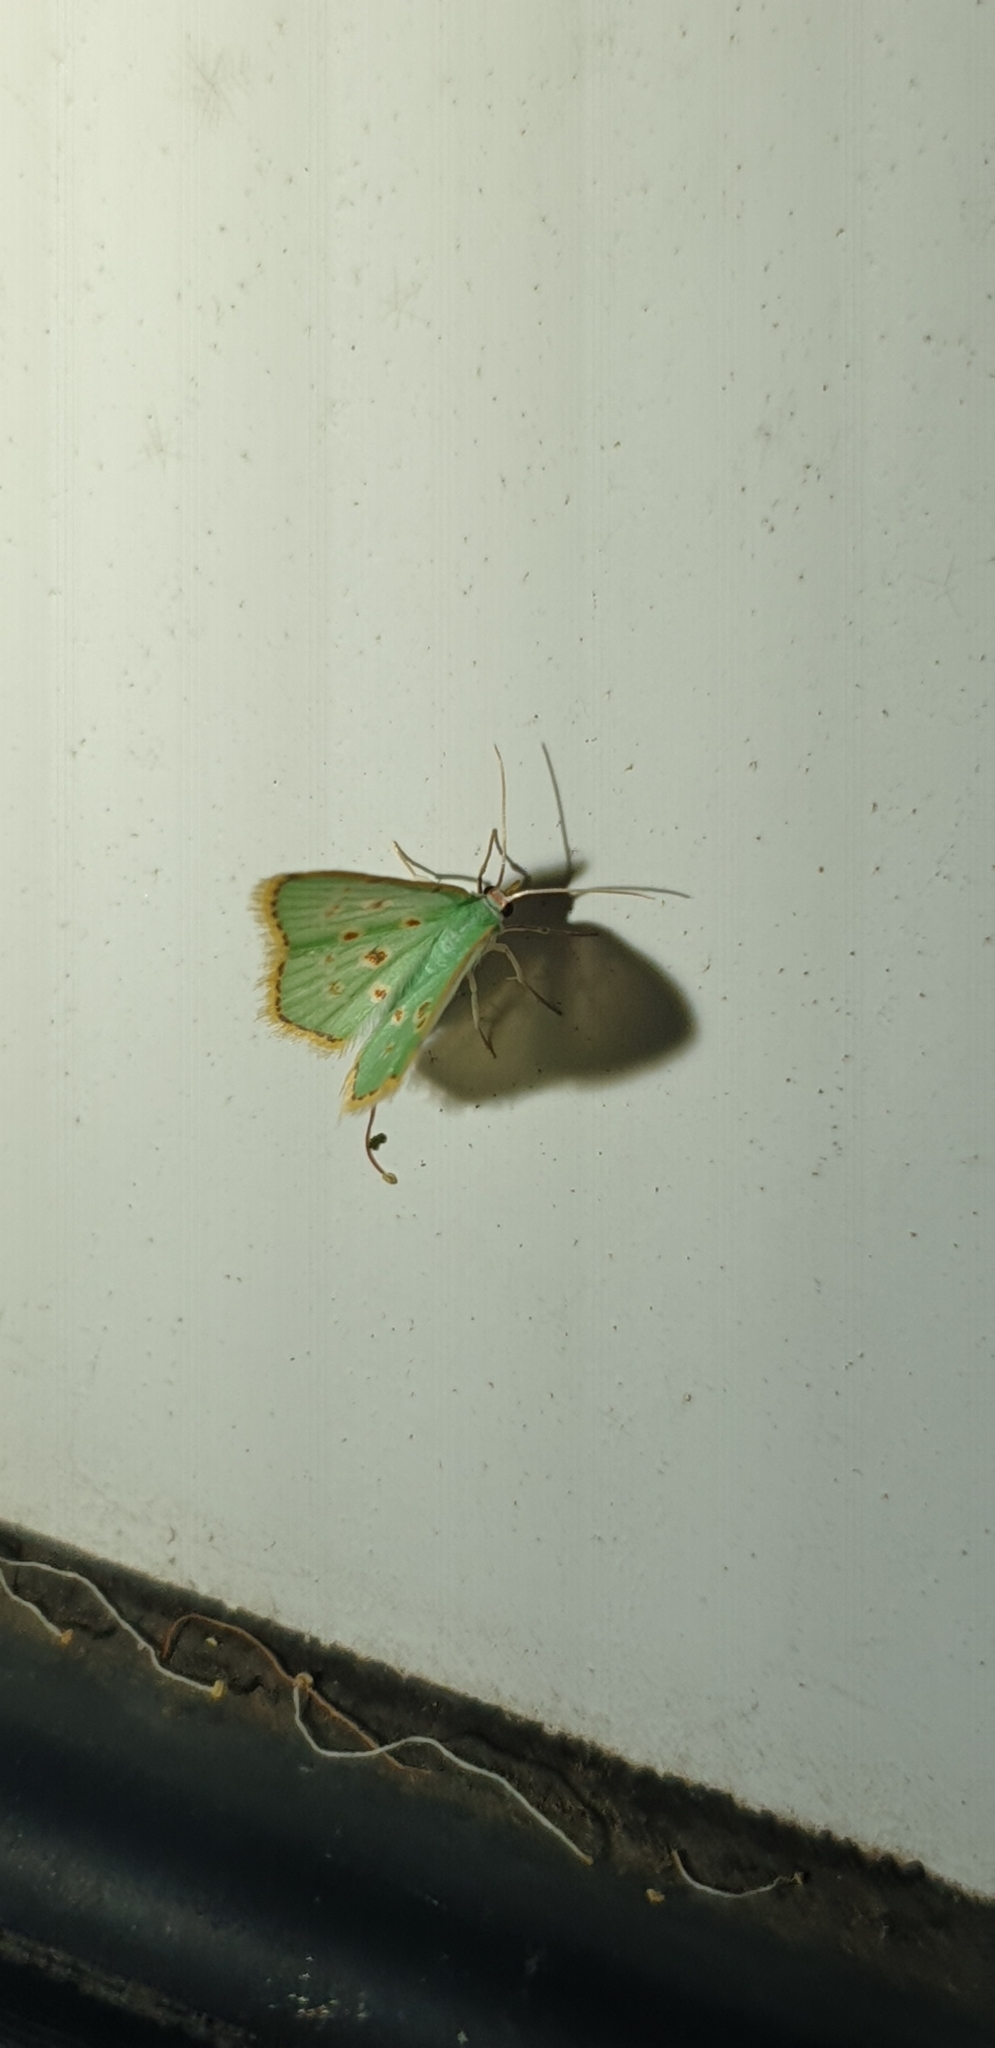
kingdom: Animalia
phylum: Arthropoda
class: Insecta
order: Lepidoptera
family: Geometridae
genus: Comostola
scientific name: Comostola laesaria
